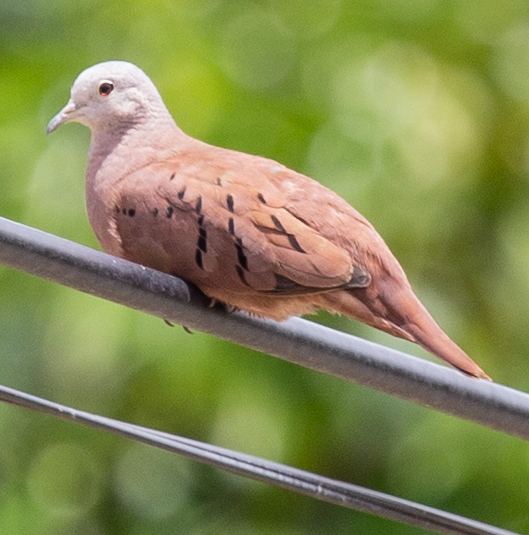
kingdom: Animalia
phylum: Chordata
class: Aves
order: Columbiformes
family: Columbidae
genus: Columbina
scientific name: Columbina talpacoti
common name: Ruddy ground dove
